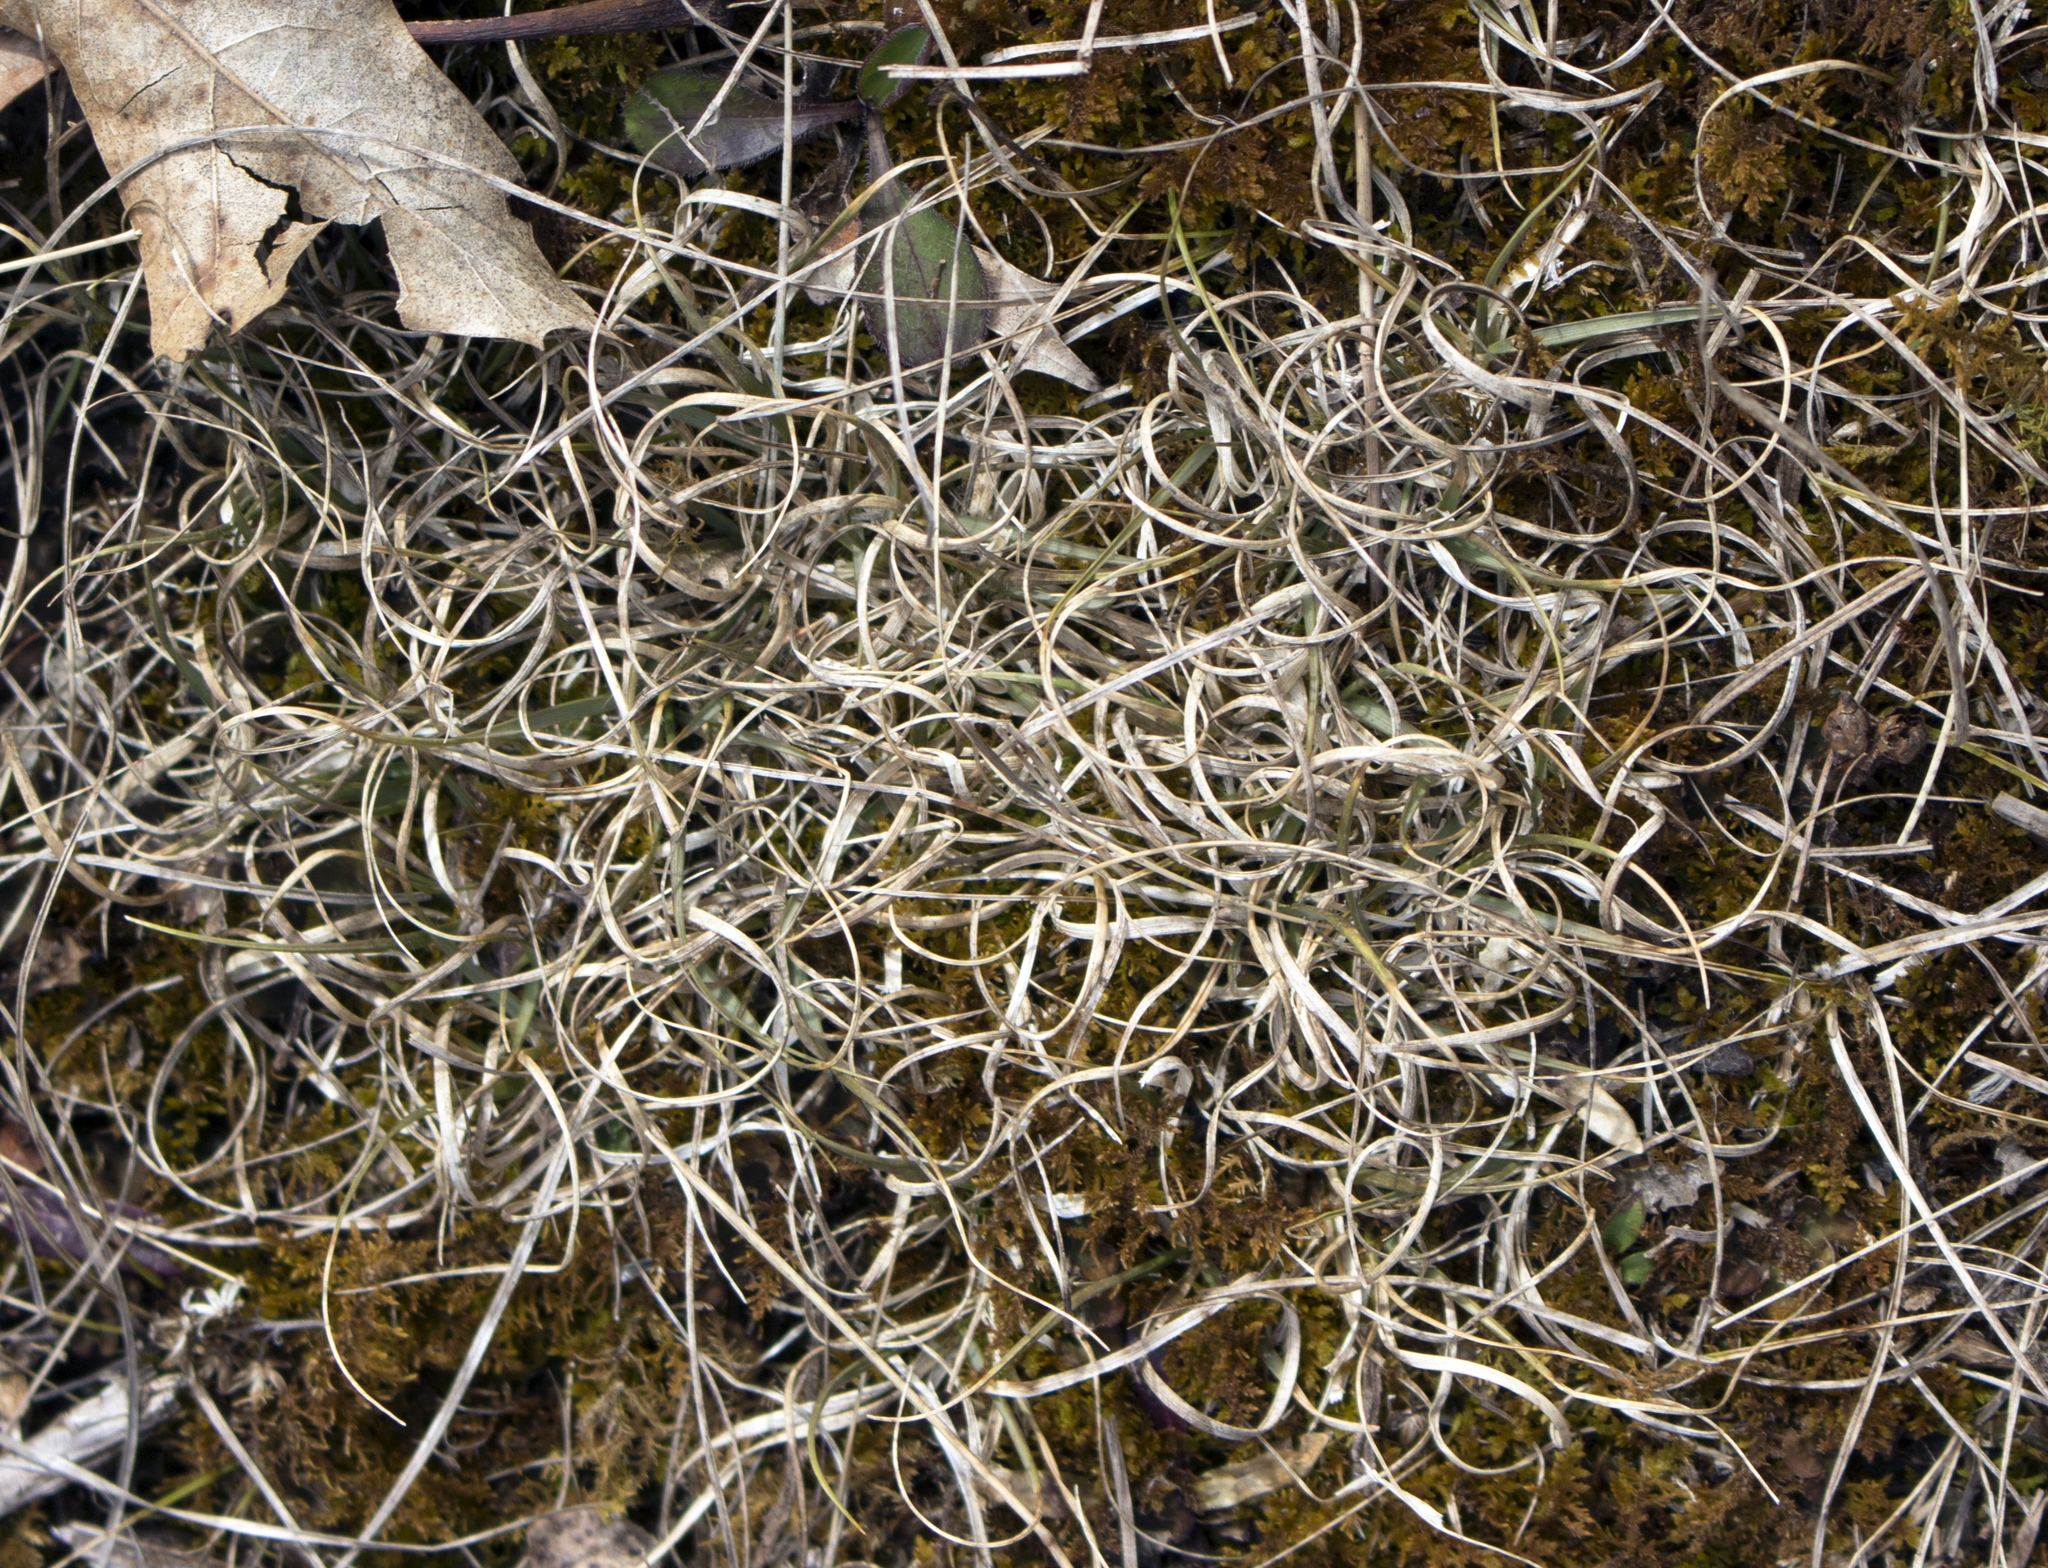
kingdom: Plantae
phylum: Tracheophyta
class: Liliopsida
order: Poales
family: Poaceae
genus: Danthonia
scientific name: Danthonia spicata
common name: Common wild oatgrass
